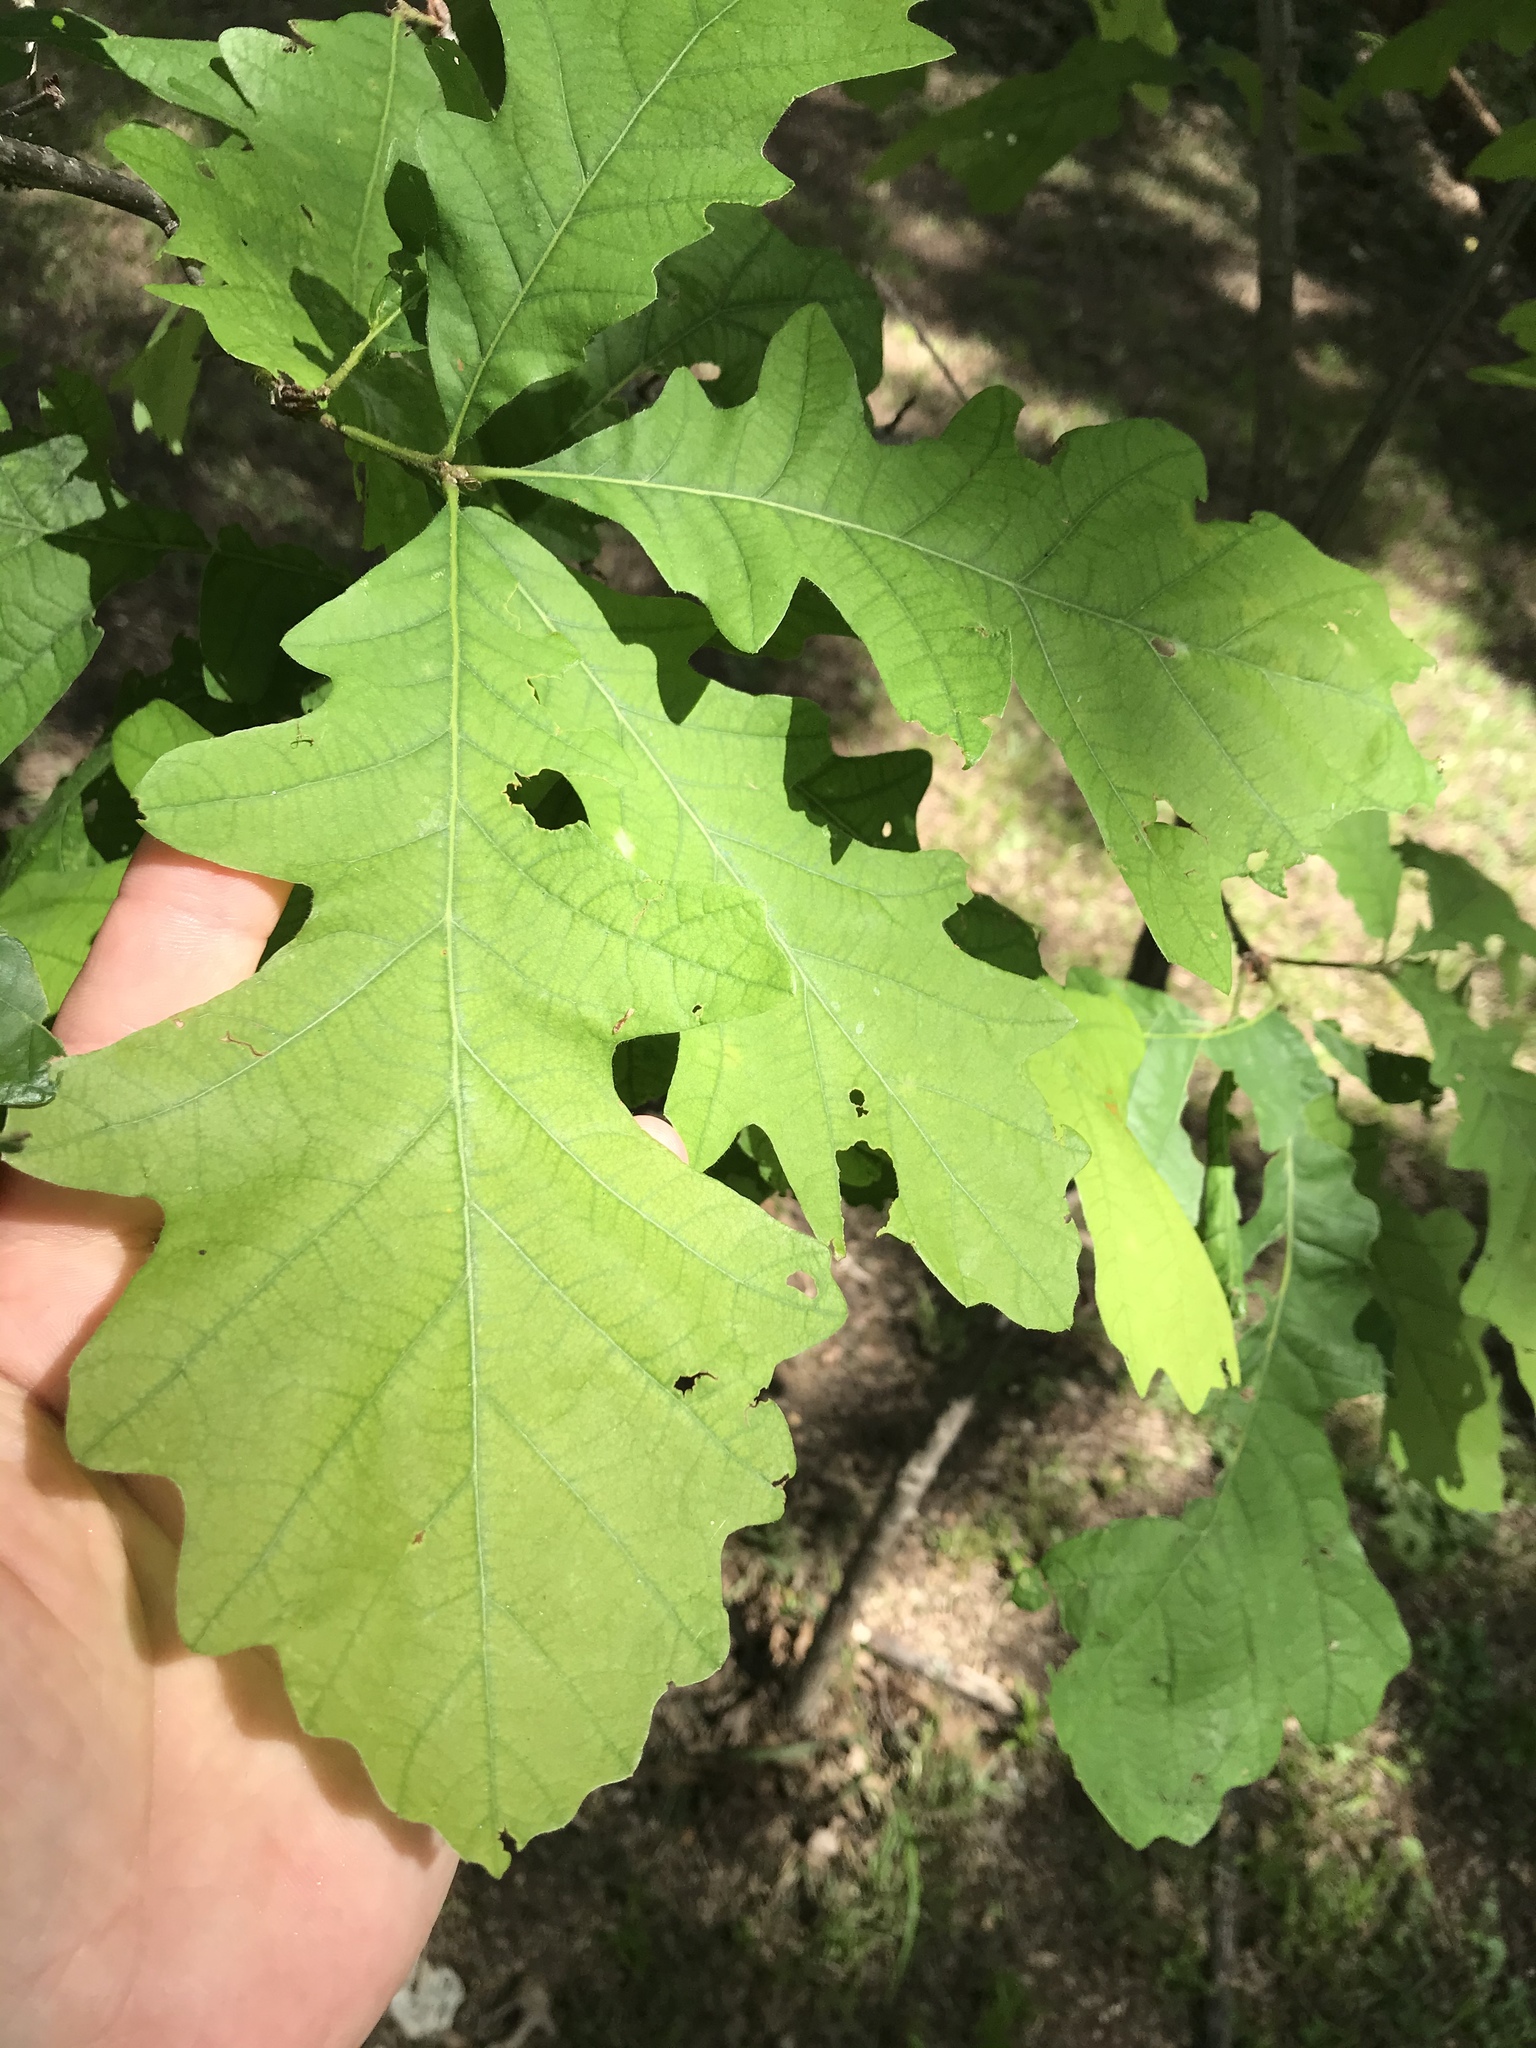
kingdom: Plantae
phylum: Tracheophyta
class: Magnoliopsida
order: Fagales
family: Fagaceae
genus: Quercus
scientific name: Quercus macrocarpa
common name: Bur oak
